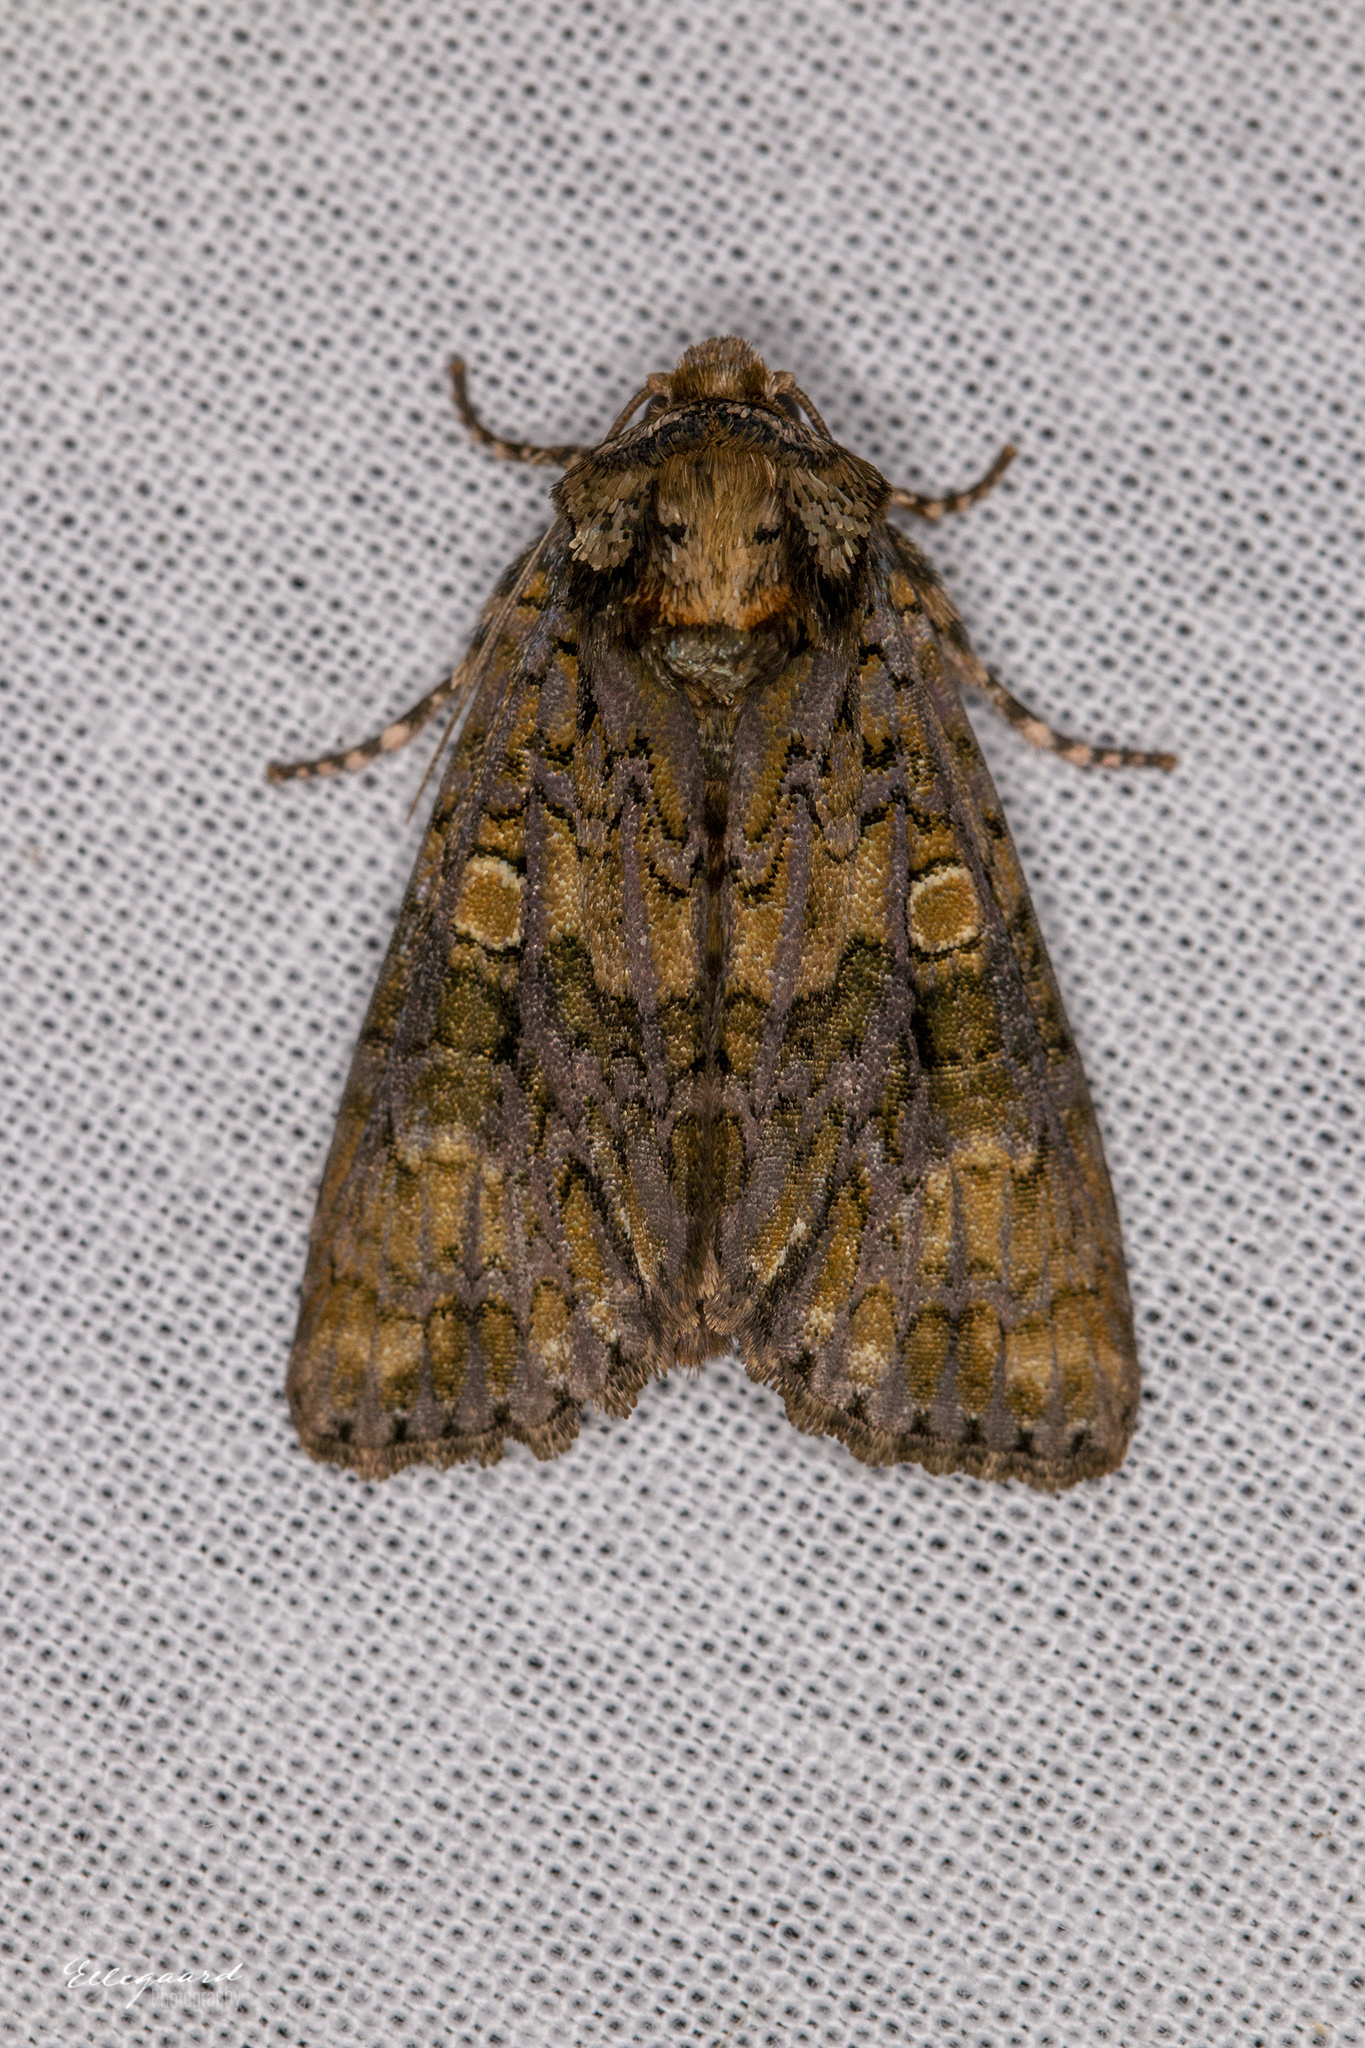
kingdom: Animalia
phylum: Arthropoda
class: Insecta
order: Lepidoptera
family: Noctuidae
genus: Craniophora
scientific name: Craniophora ligustri
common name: Coronet
